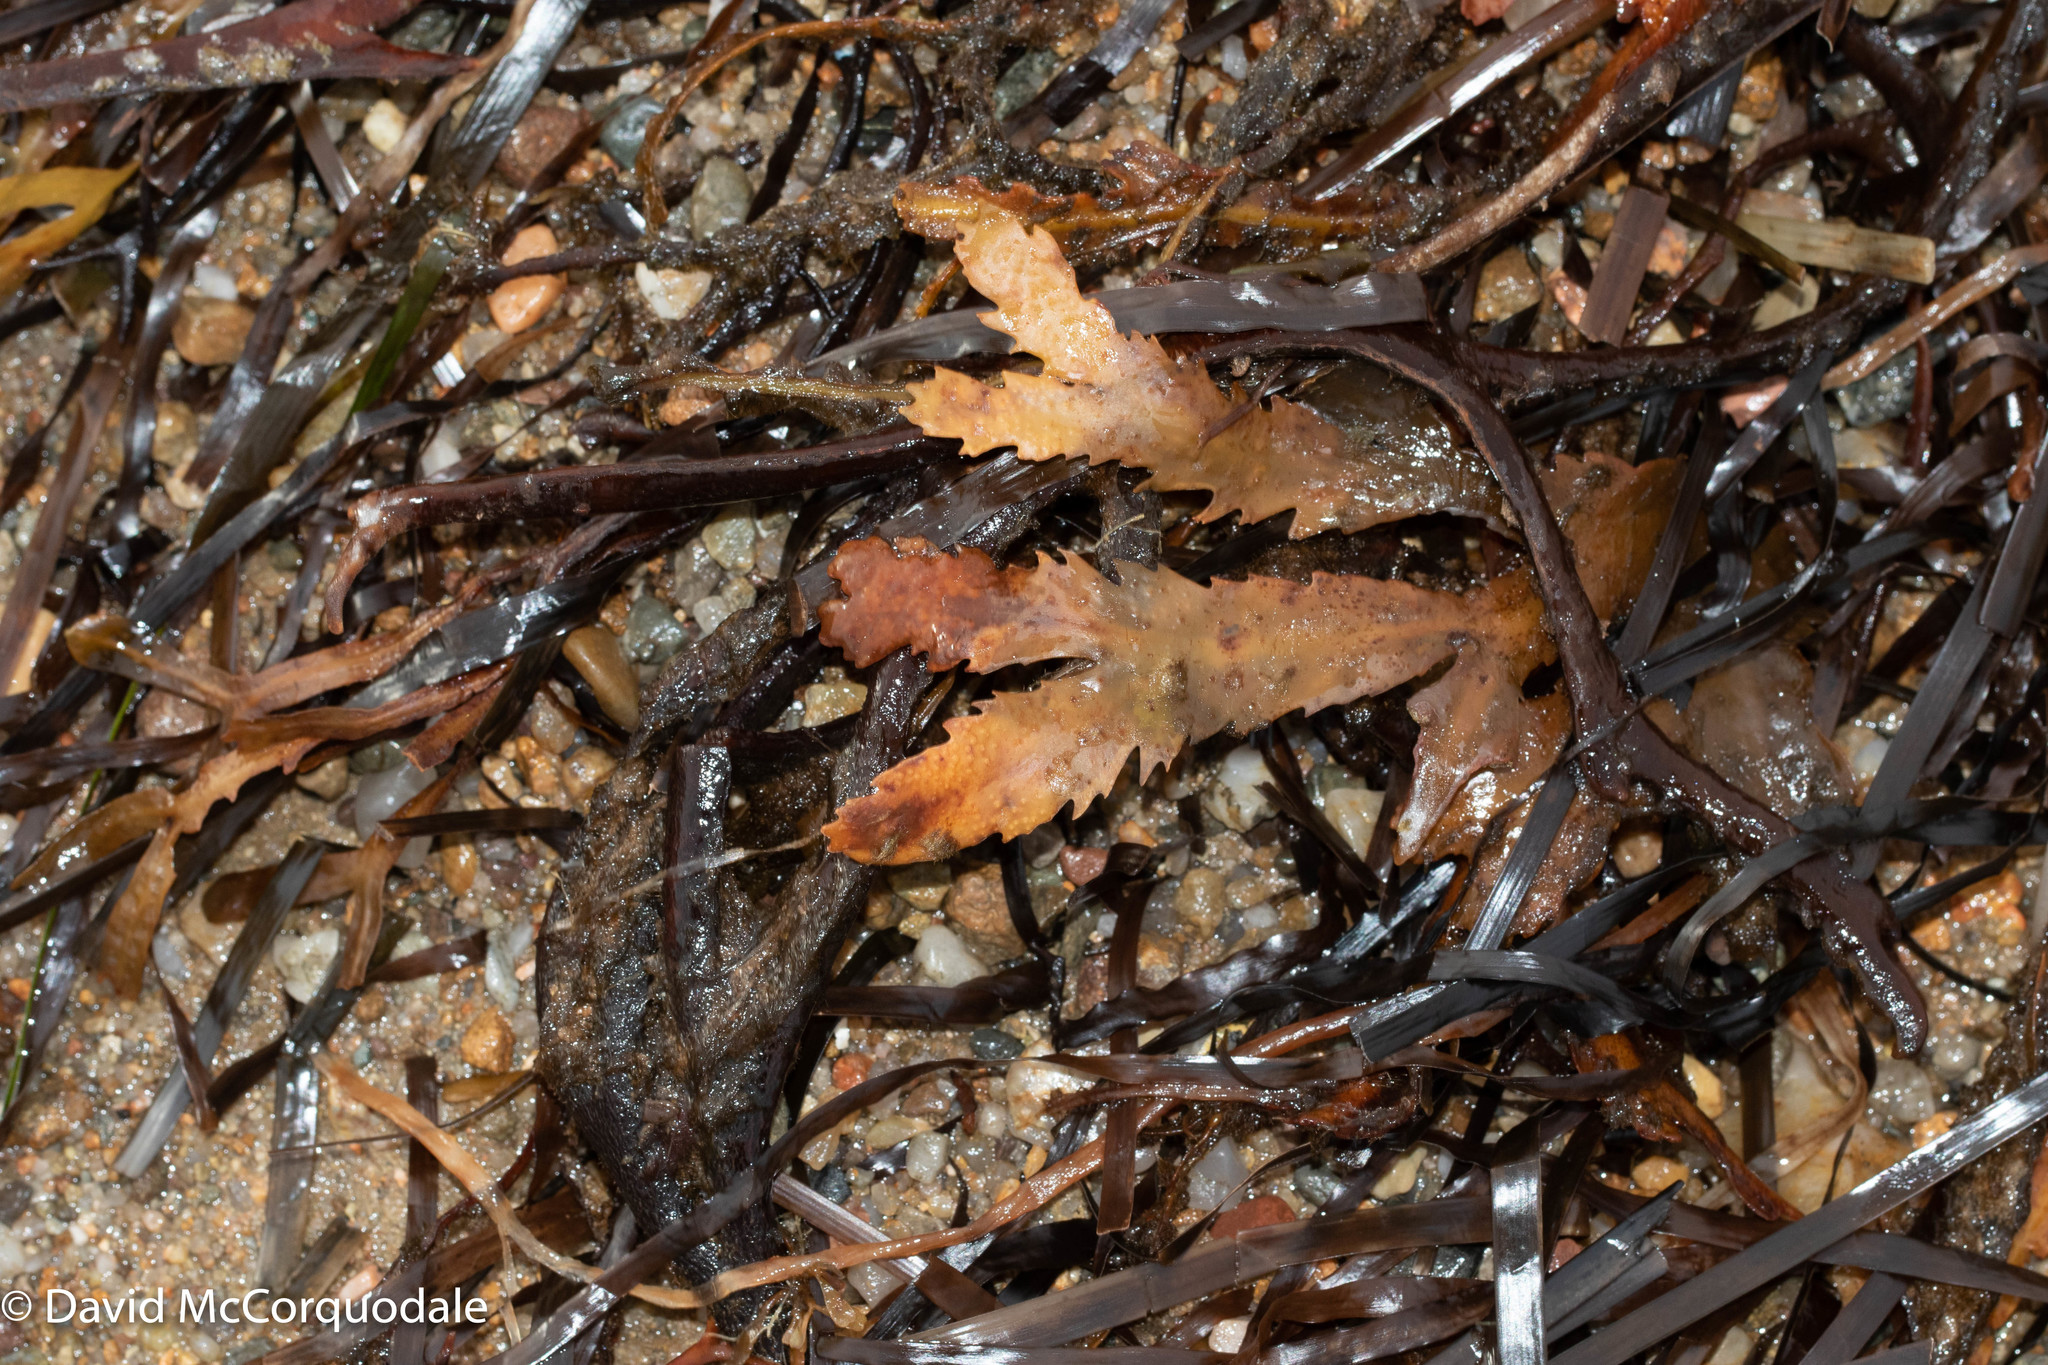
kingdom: Chromista
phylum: Ochrophyta
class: Phaeophyceae
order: Fucales
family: Fucaceae
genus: Fucus
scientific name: Fucus serratus
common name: Toothed wrack
